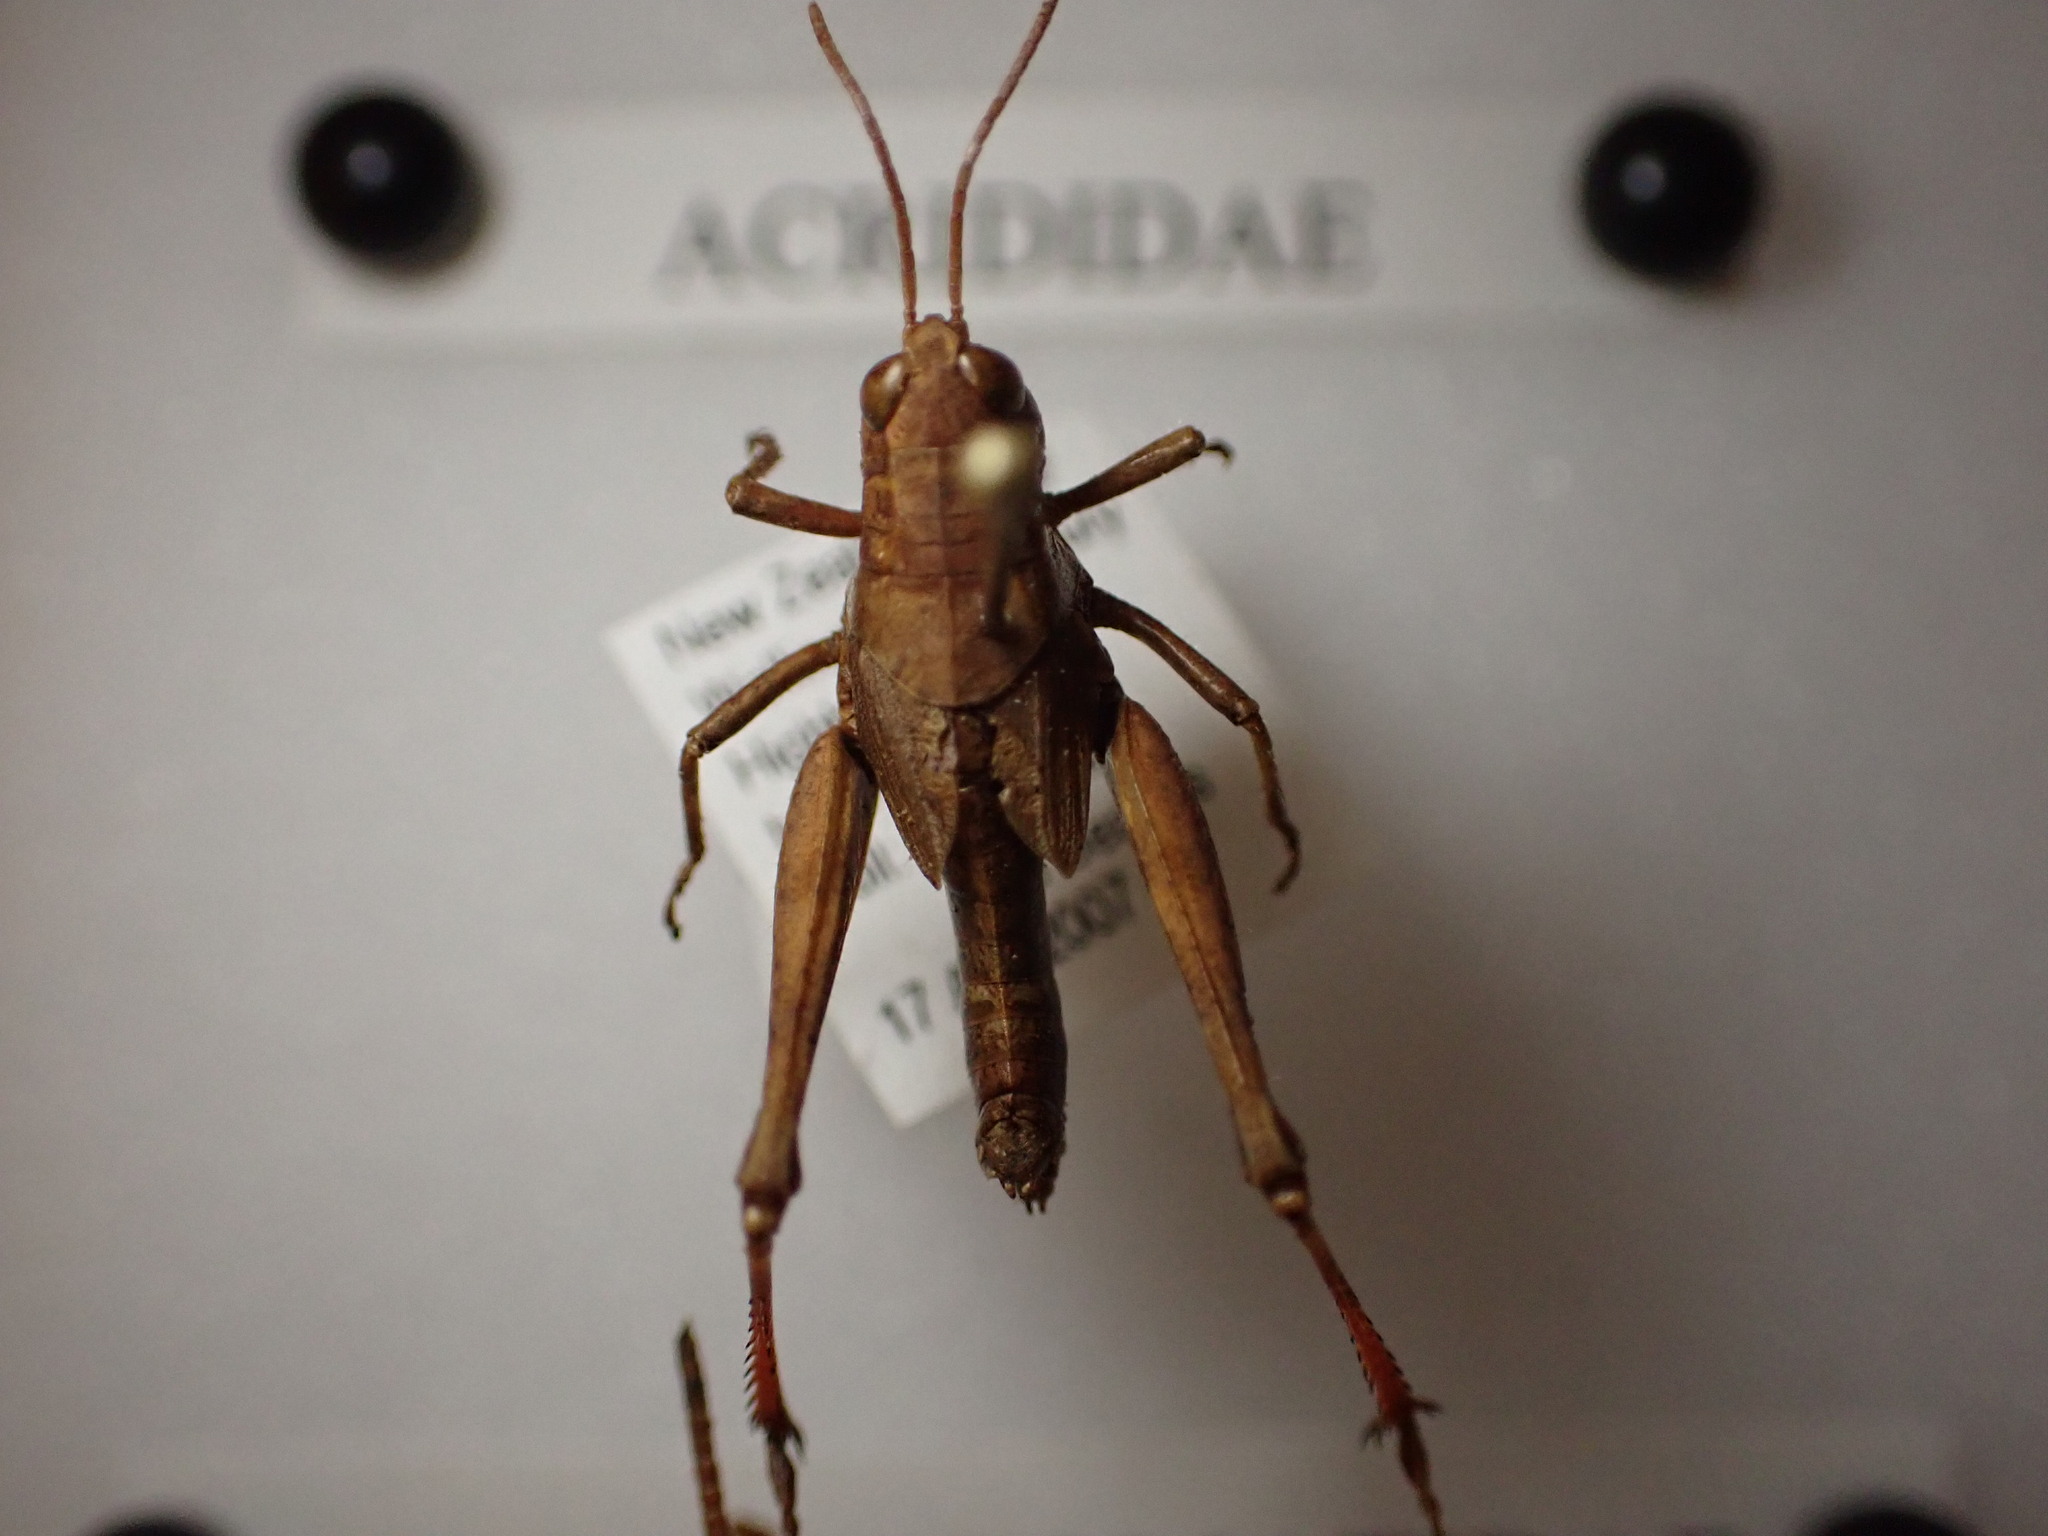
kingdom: Animalia
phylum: Arthropoda
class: Insecta
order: Orthoptera
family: Acrididae
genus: Phaulacridium
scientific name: Phaulacridium marginale
